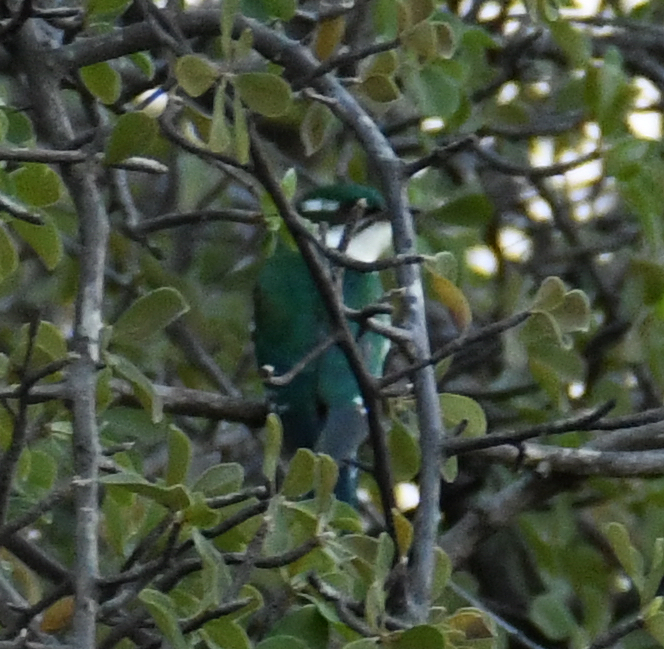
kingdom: Animalia
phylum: Chordata
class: Aves
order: Cuculiformes
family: Cuculidae
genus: Chrysococcyx
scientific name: Chrysococcyx caprius
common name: Diederik cuckoo
